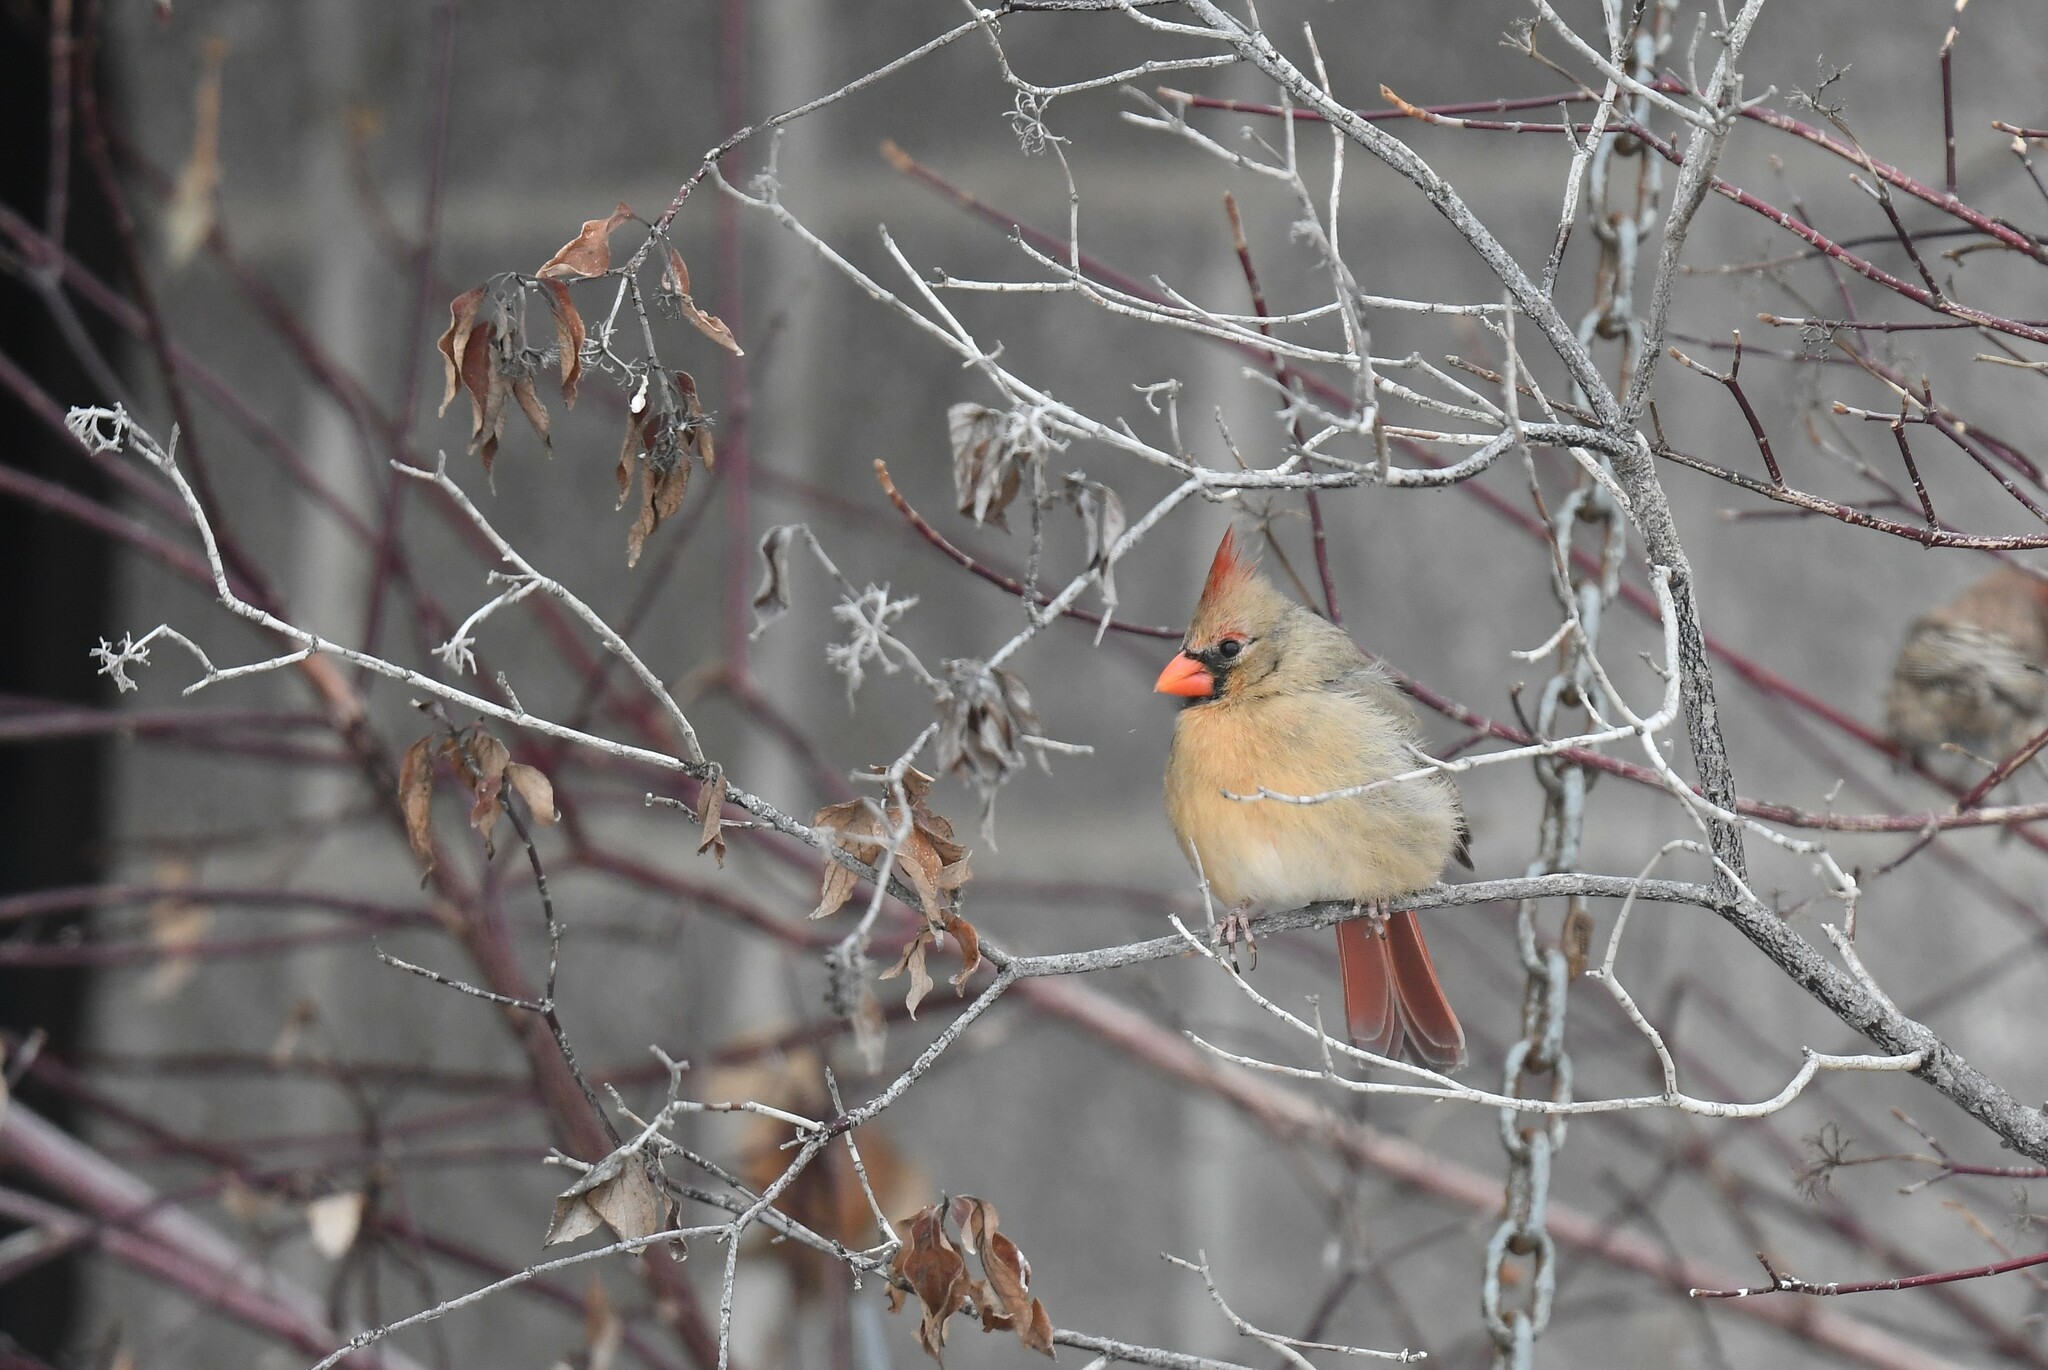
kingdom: Animalia
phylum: Chordata
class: Aves
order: Passeriformes
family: Cardinalidae
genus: Cardinalis
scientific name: Cardinalis cardinalis
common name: Northern cardinal
